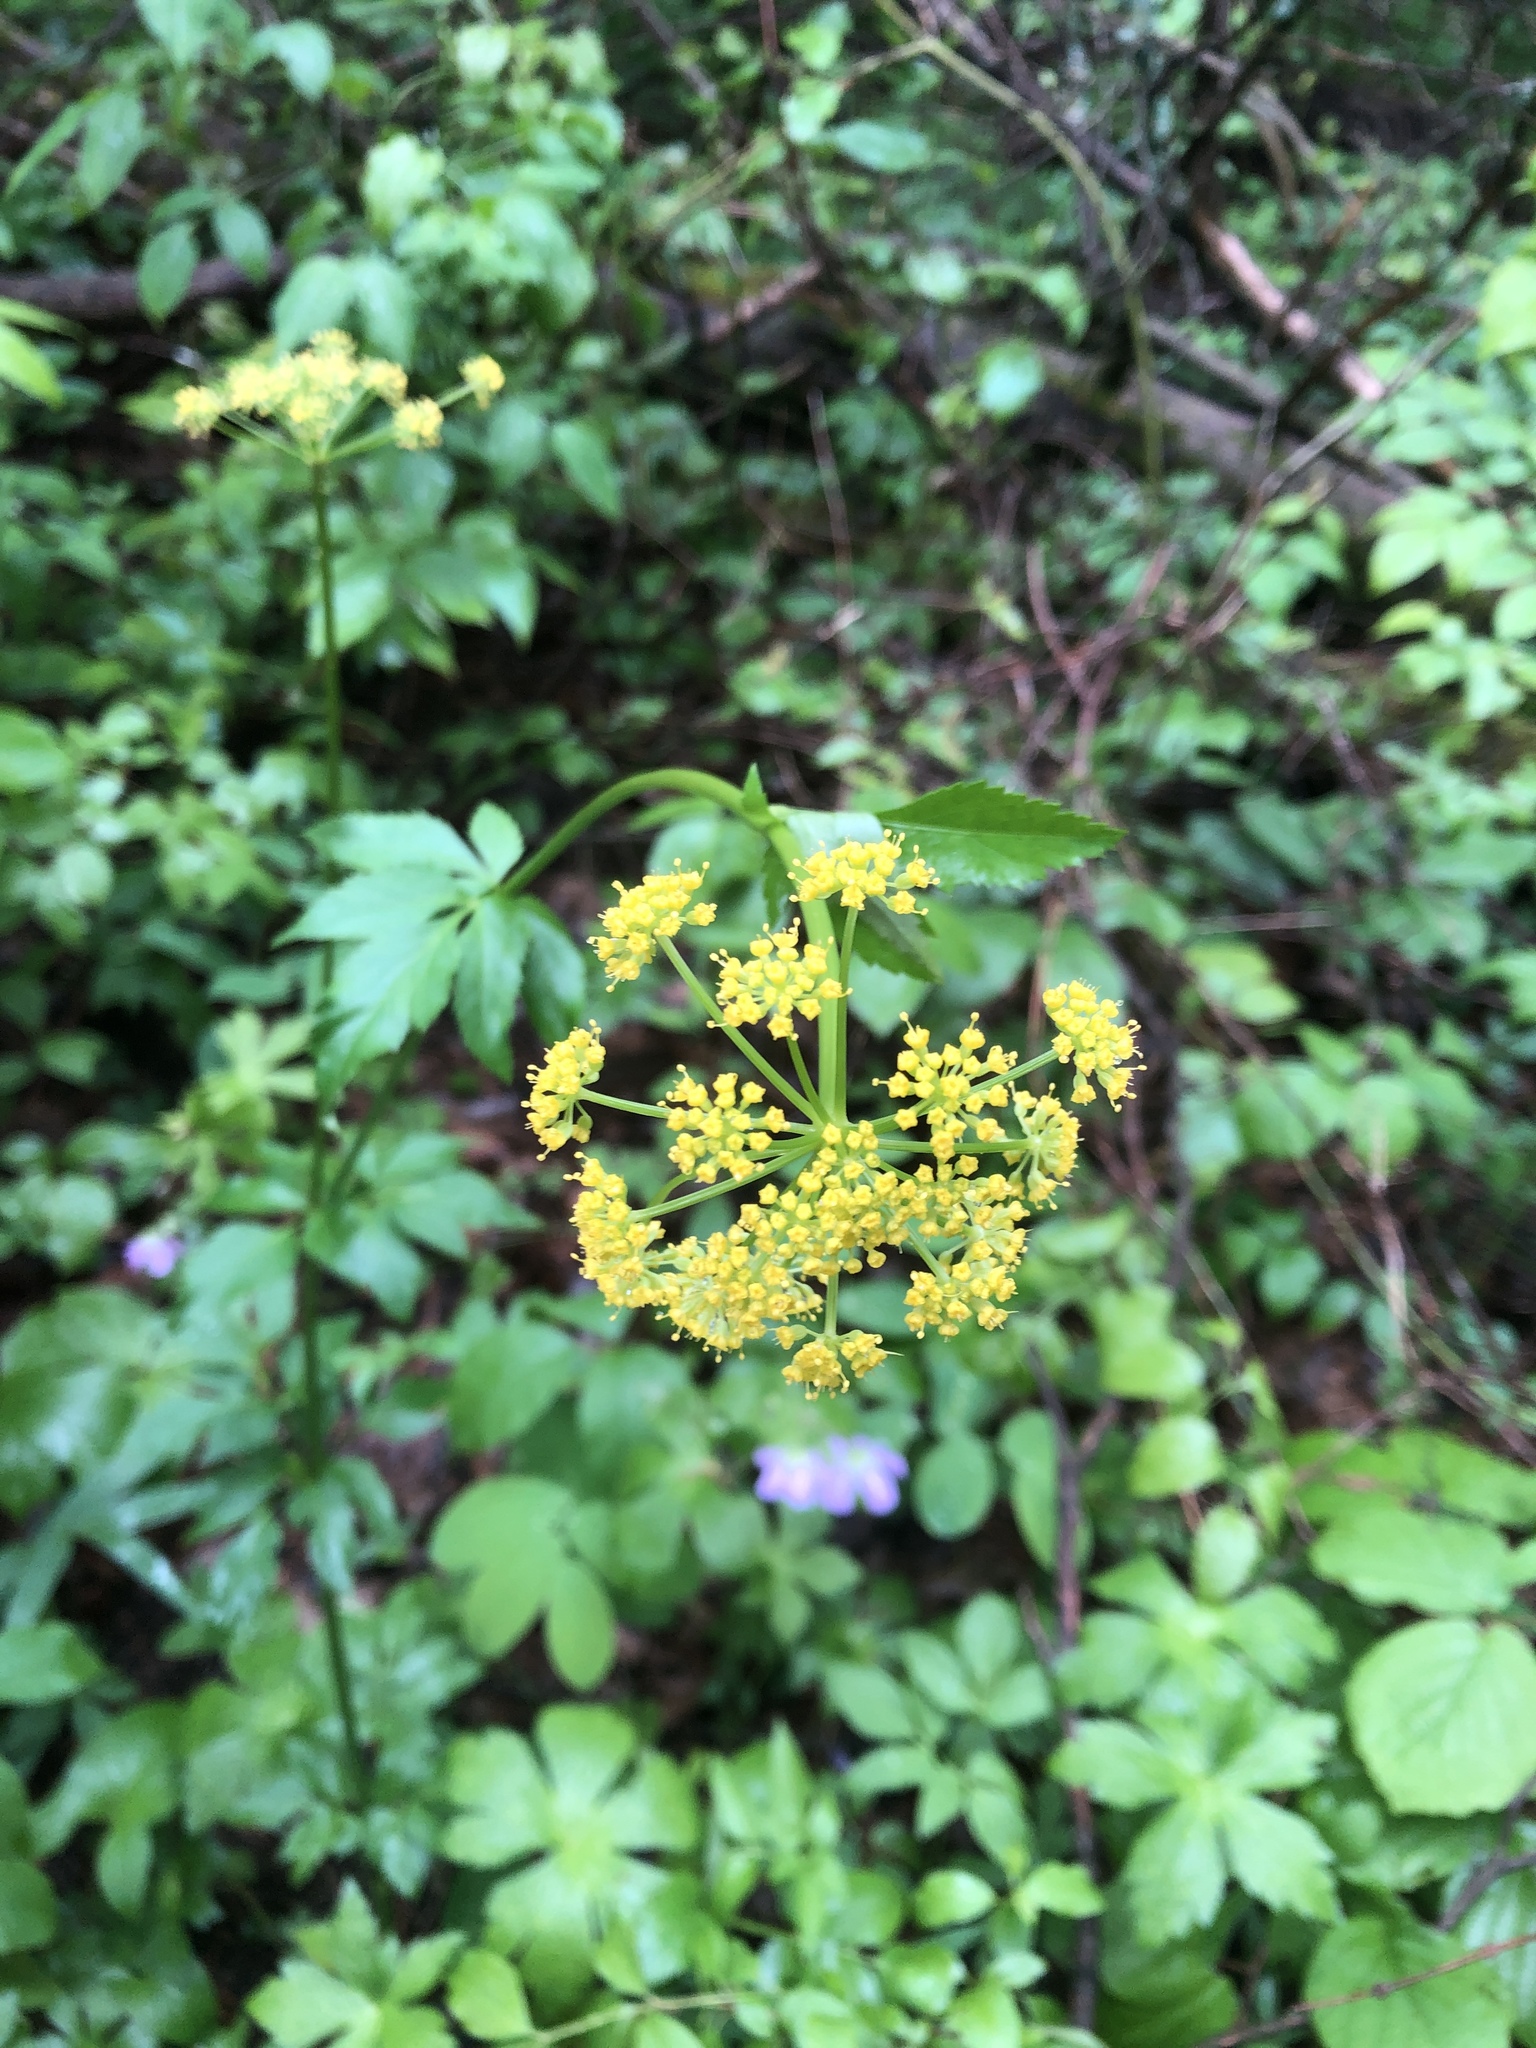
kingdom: Plantae
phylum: Tracheophyta
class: Magnoliopsida
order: Apiales
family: Apiaceae
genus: Zizia
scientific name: Zizia aurea
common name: Golden alexanders
